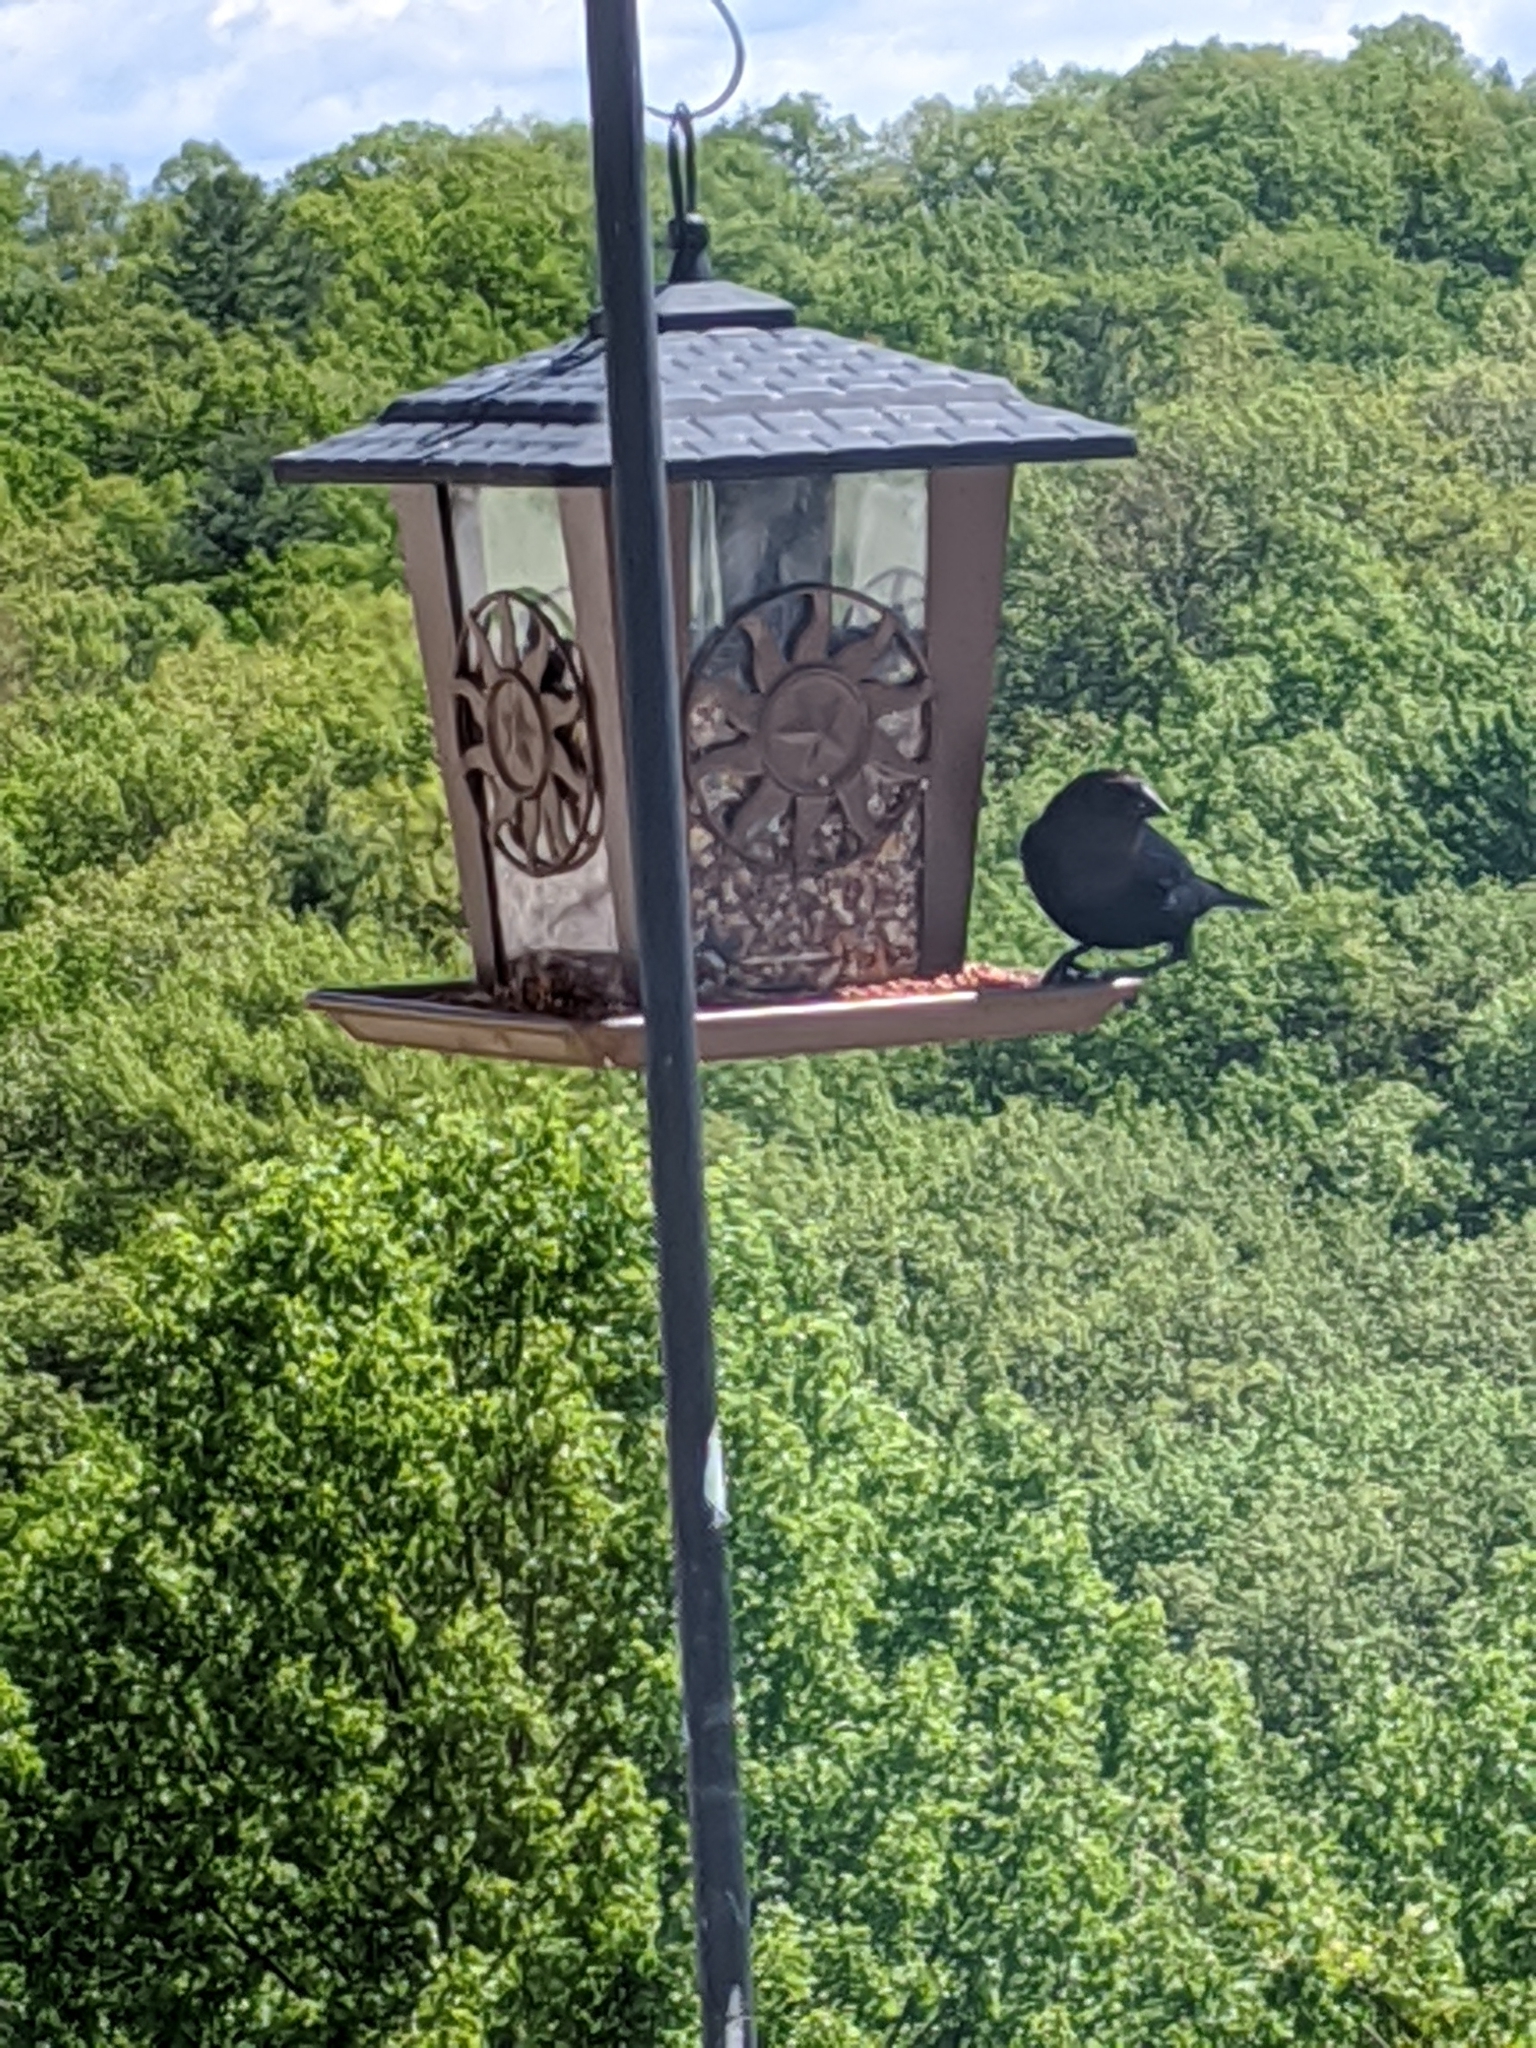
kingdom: Animalia
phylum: Chordata
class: Aves
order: Passeriformes
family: Icteridae
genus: Molothrus
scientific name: Molothrus ater
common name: Brown-headed cowbird
